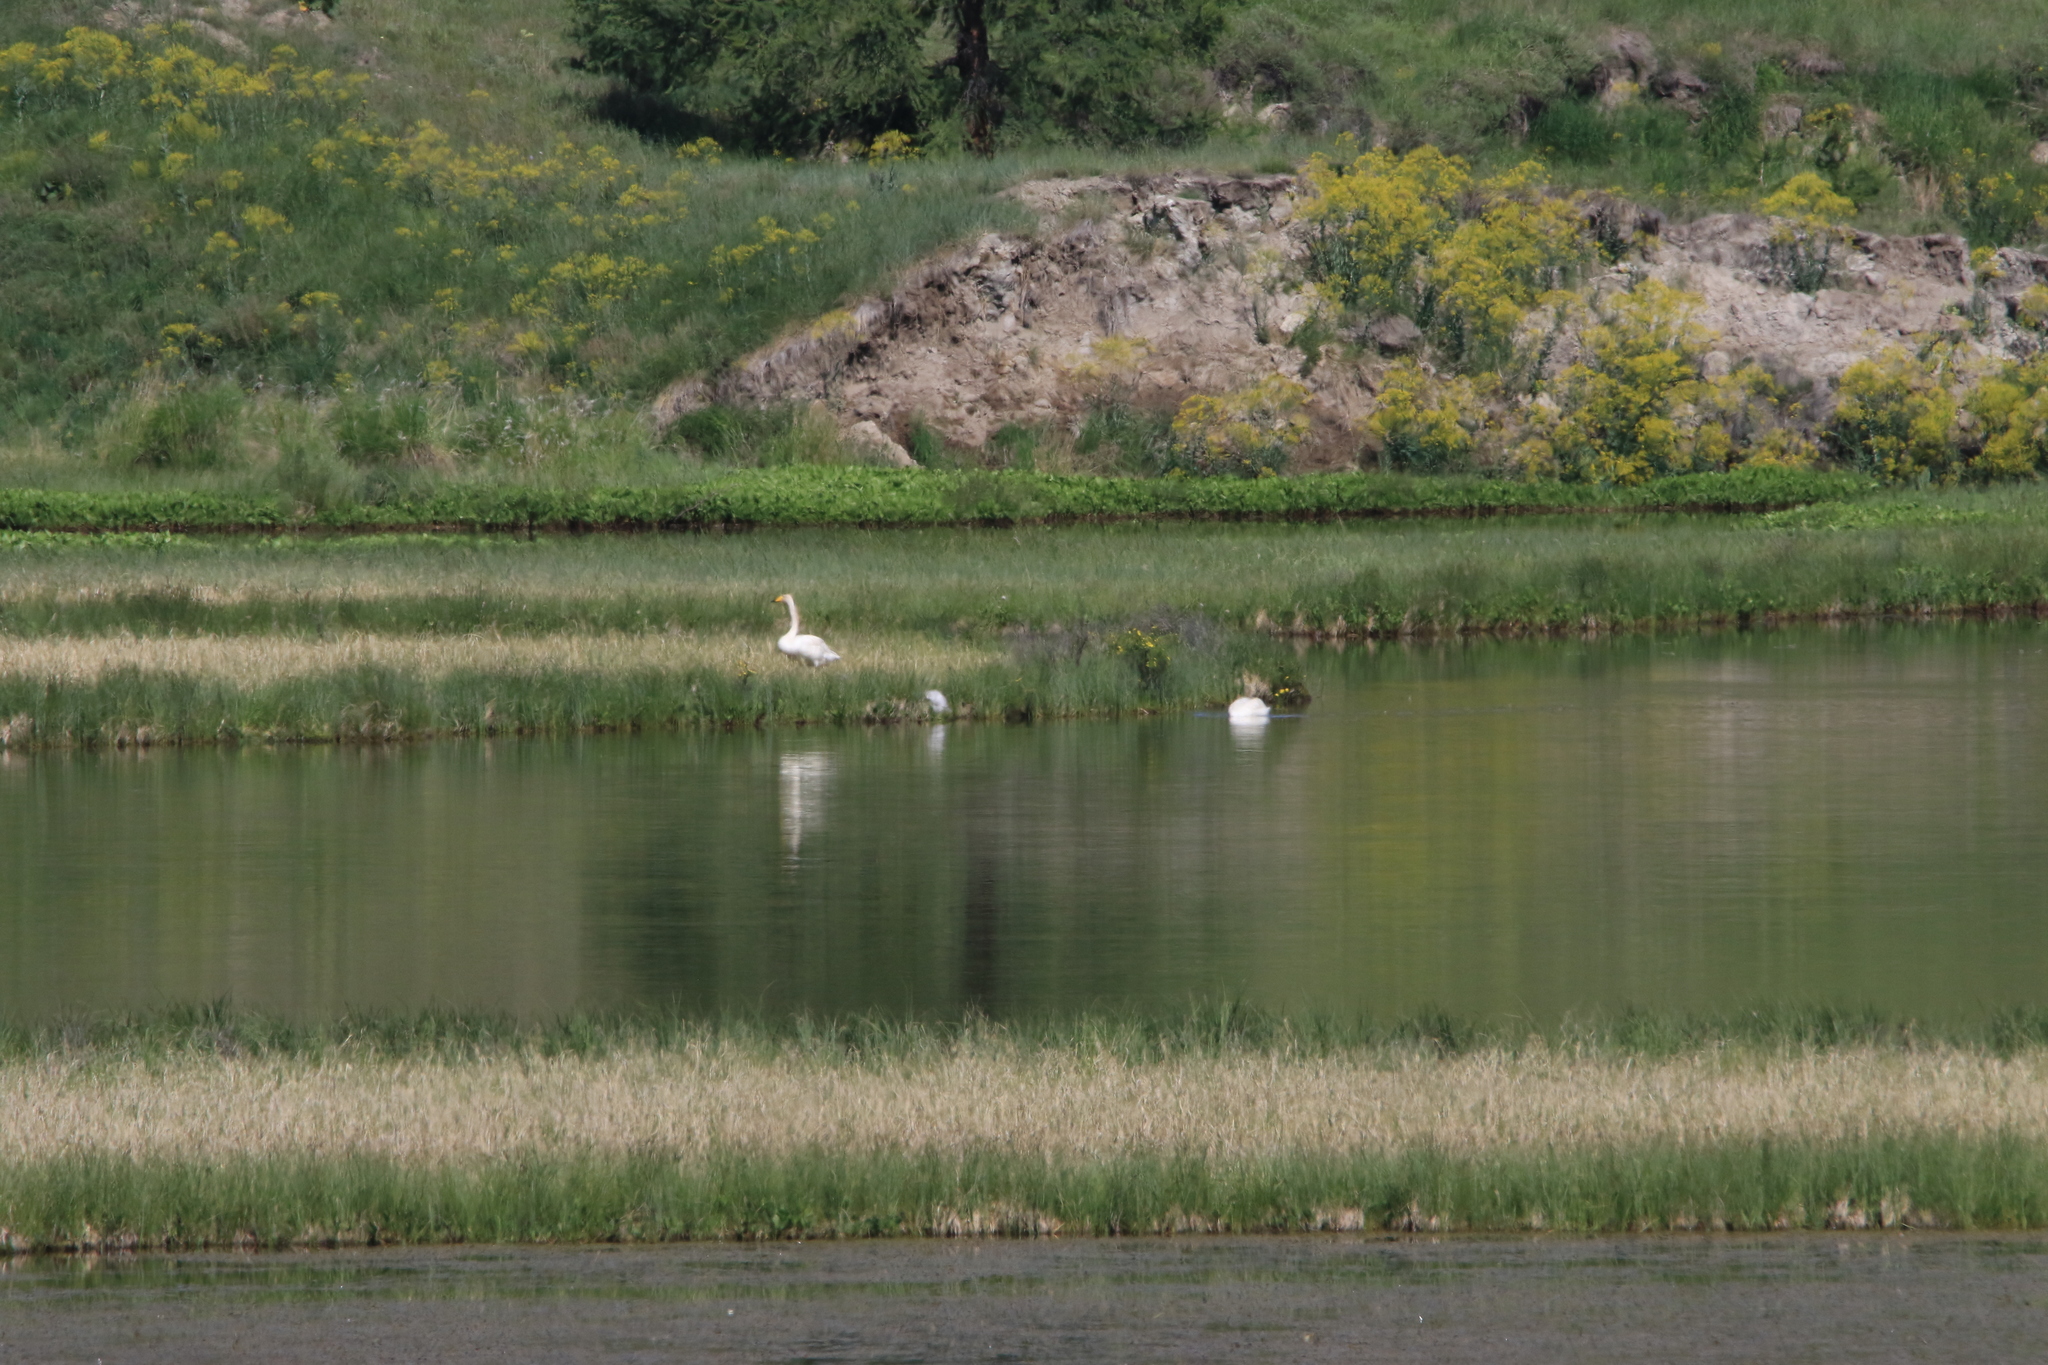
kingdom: Animalia
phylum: Chordata
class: Aves
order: Anseriformes
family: Anatidae
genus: Cygnus
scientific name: Cygnus cygnus
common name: Whooper swan
